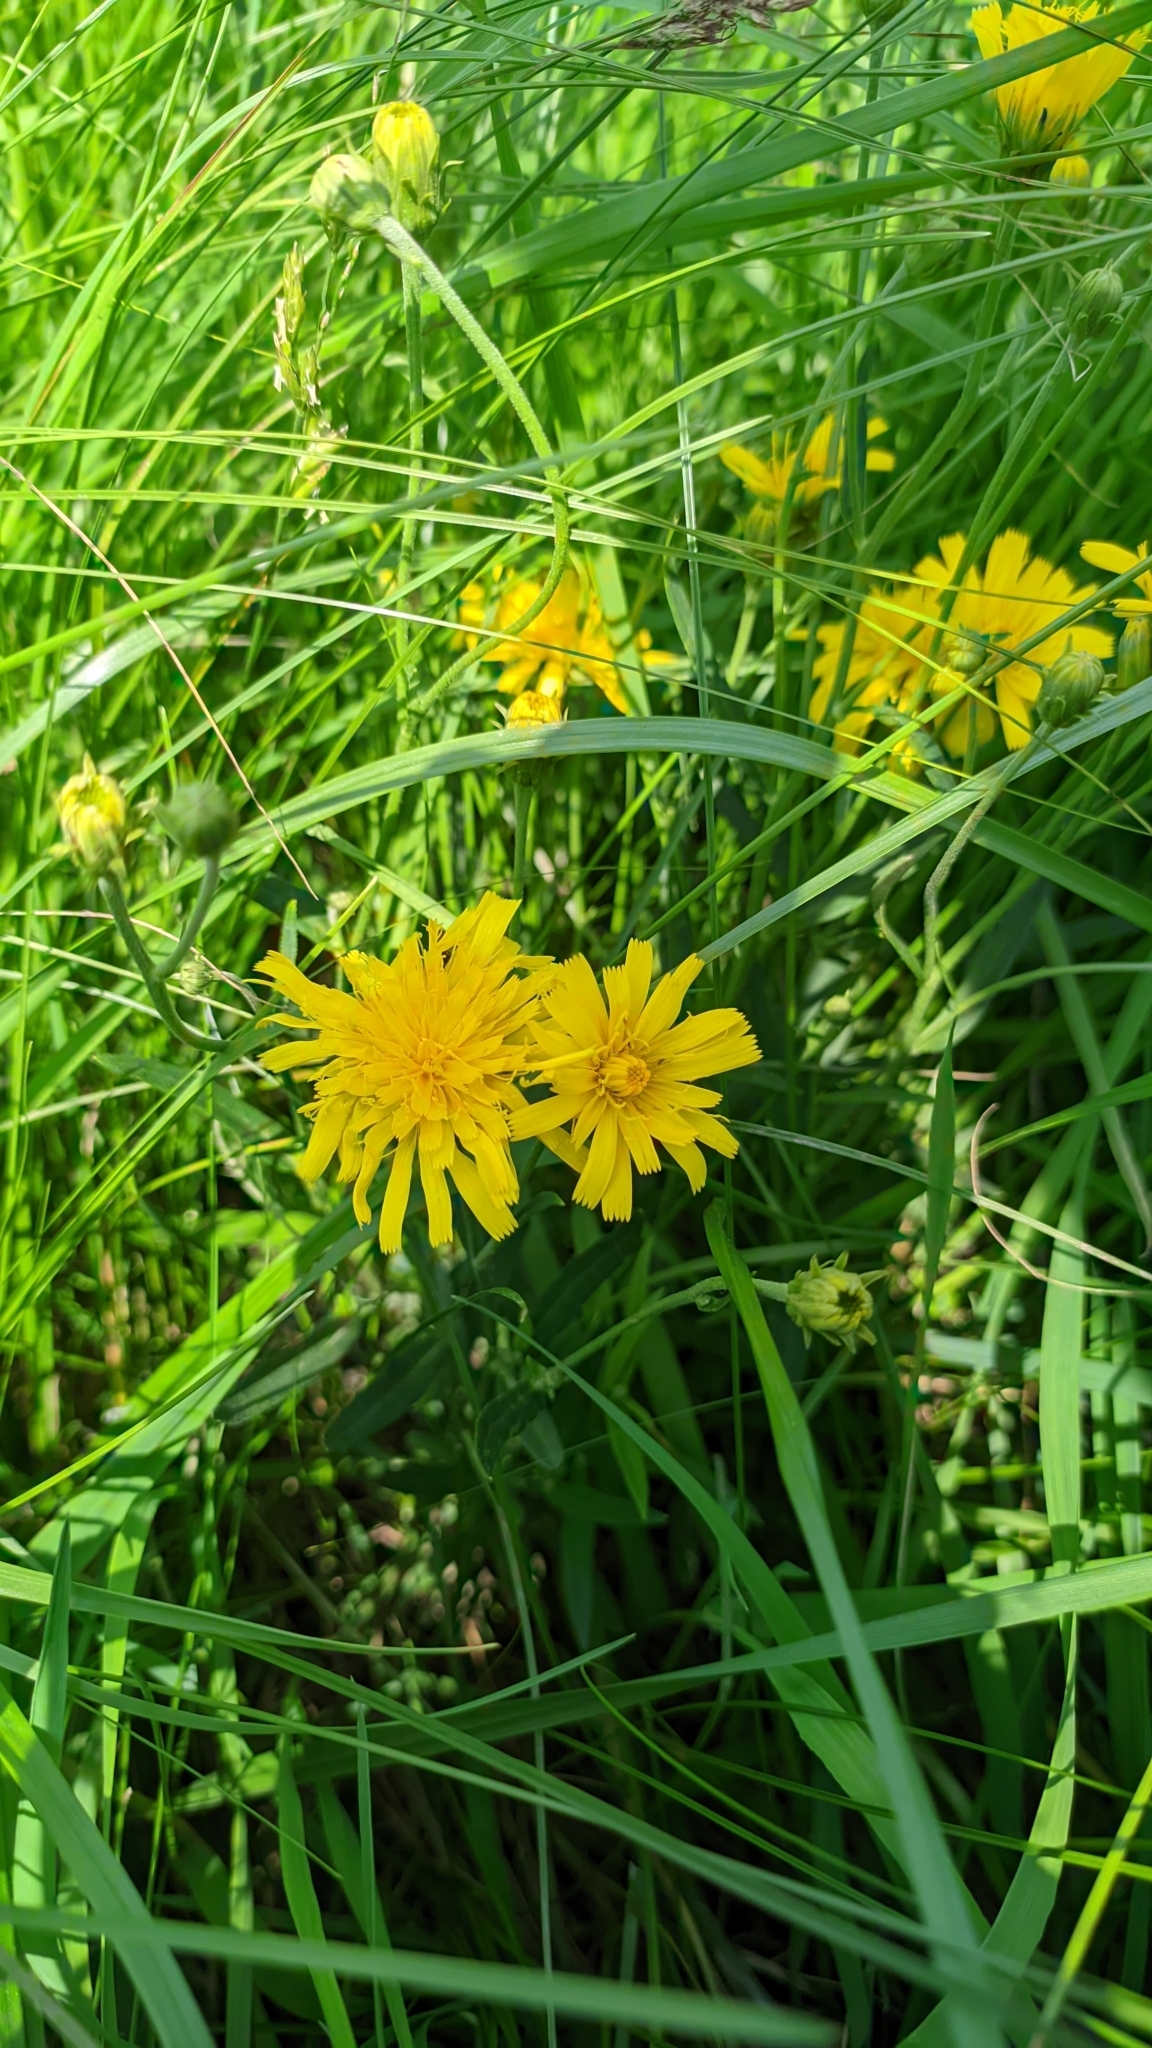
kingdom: Plantae
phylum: Tracheophyta
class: Magnoliopsida
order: Asterales
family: Asteraceae
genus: Hieracium
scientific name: Hieracium umbellatum
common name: Northern hawkweed
